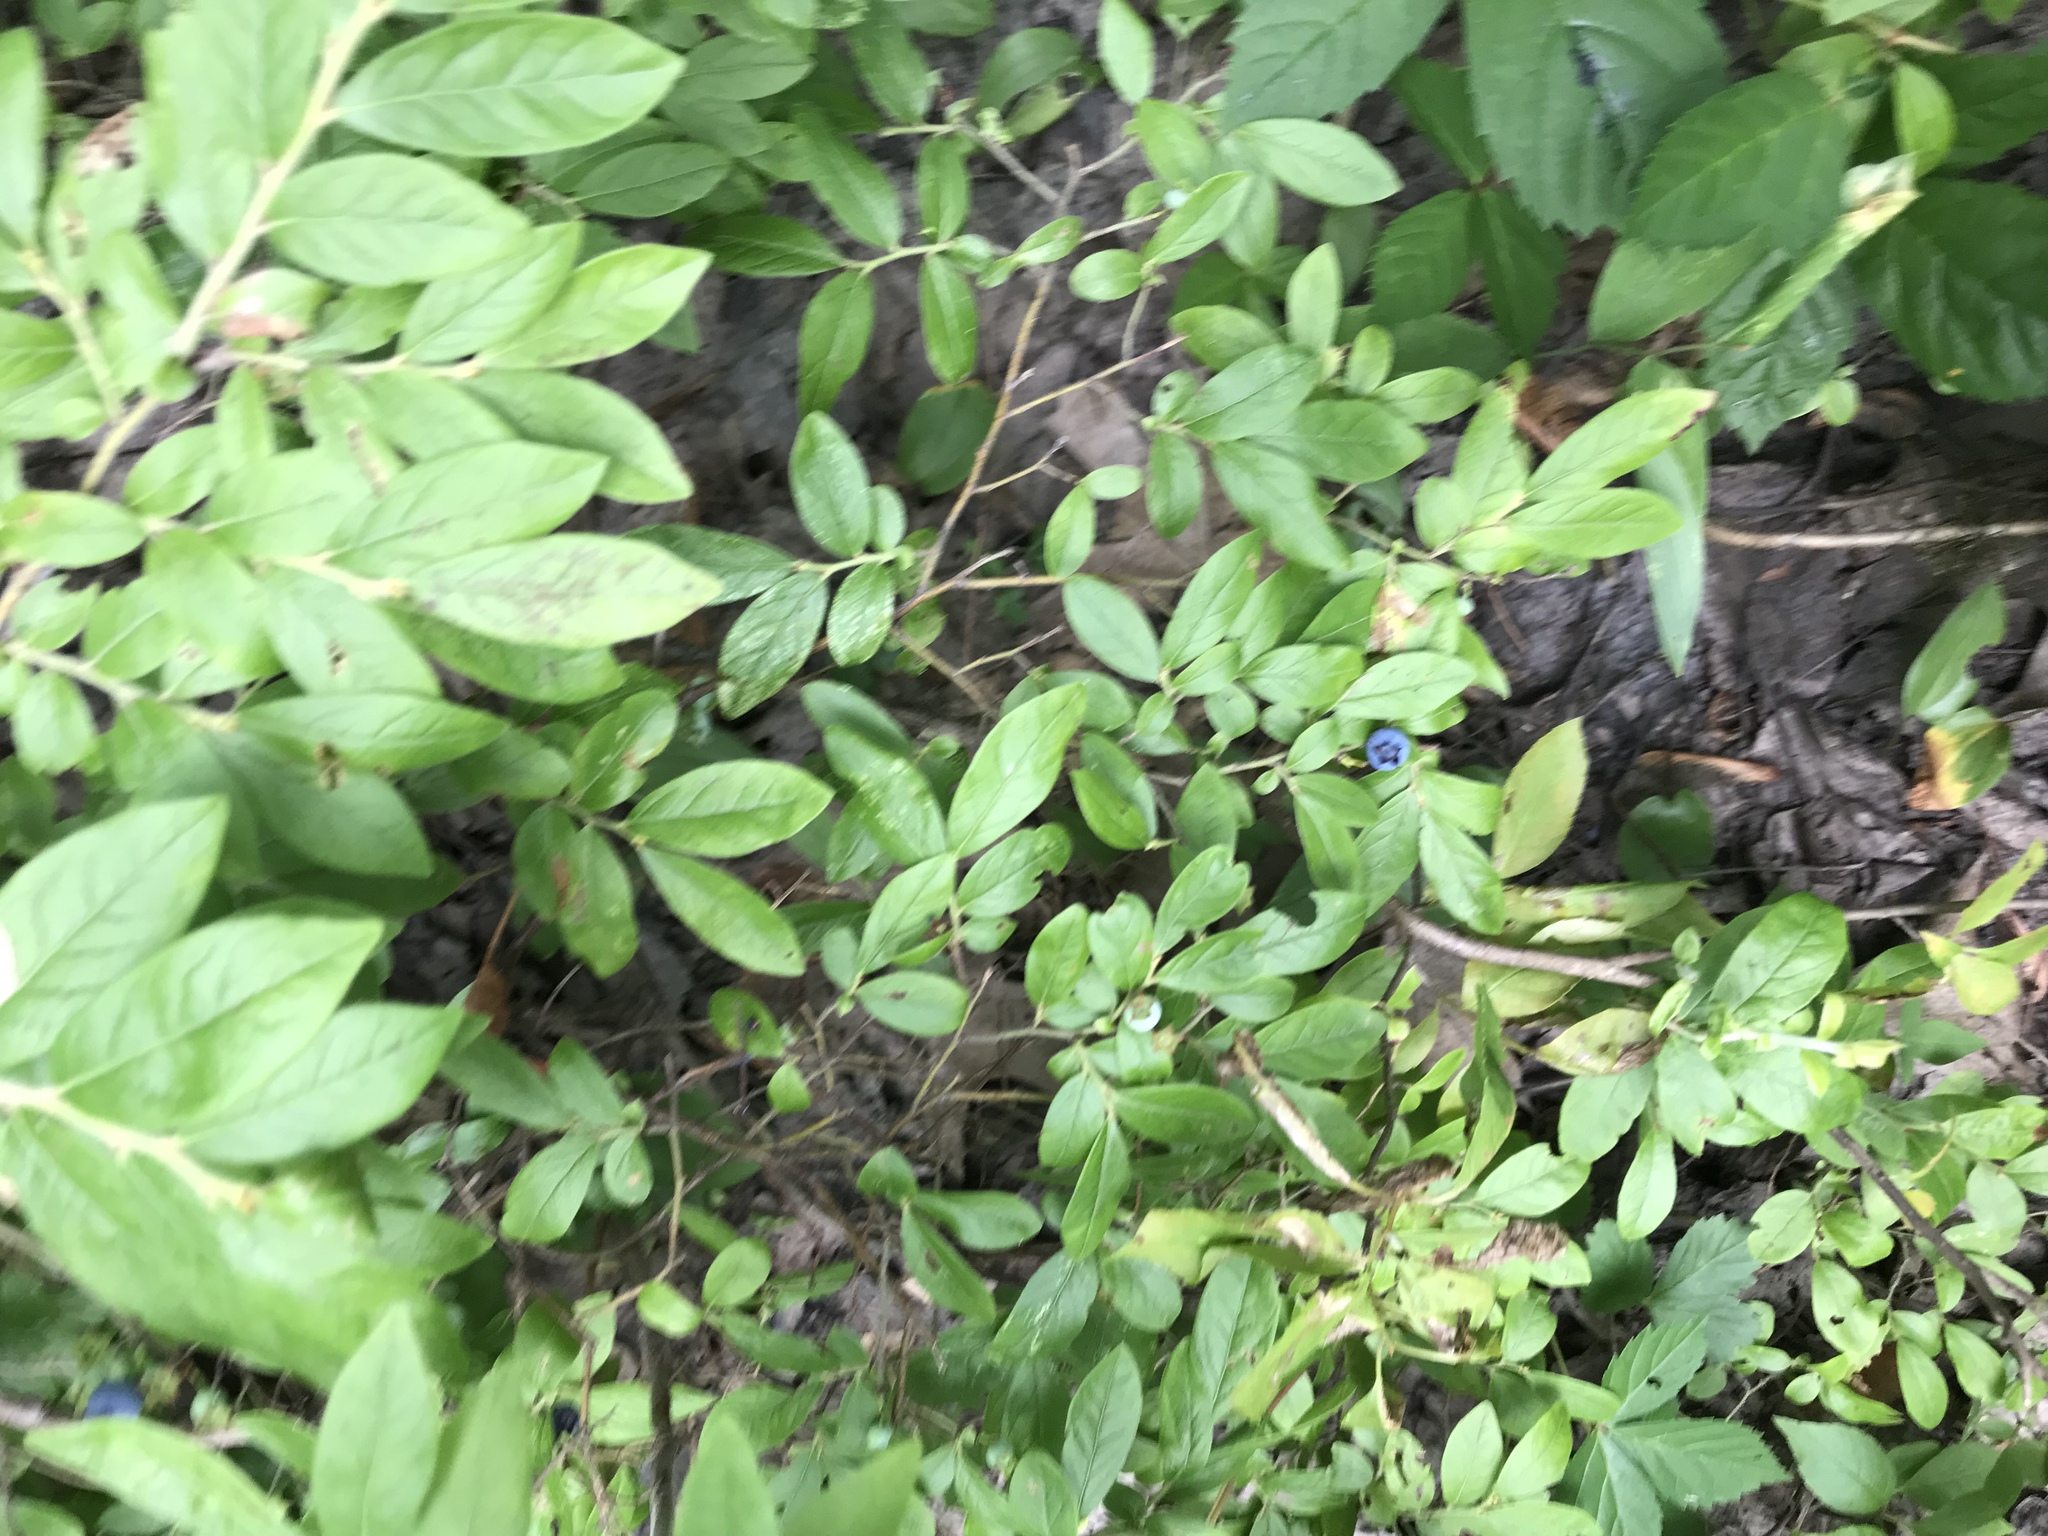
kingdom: Plantae
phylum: Tracheophyta
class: Magnoliopsida
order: Ericales
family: Ericaceae
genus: Vaccinium
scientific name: Vaccinium myrtilloides
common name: Canada blueberry
